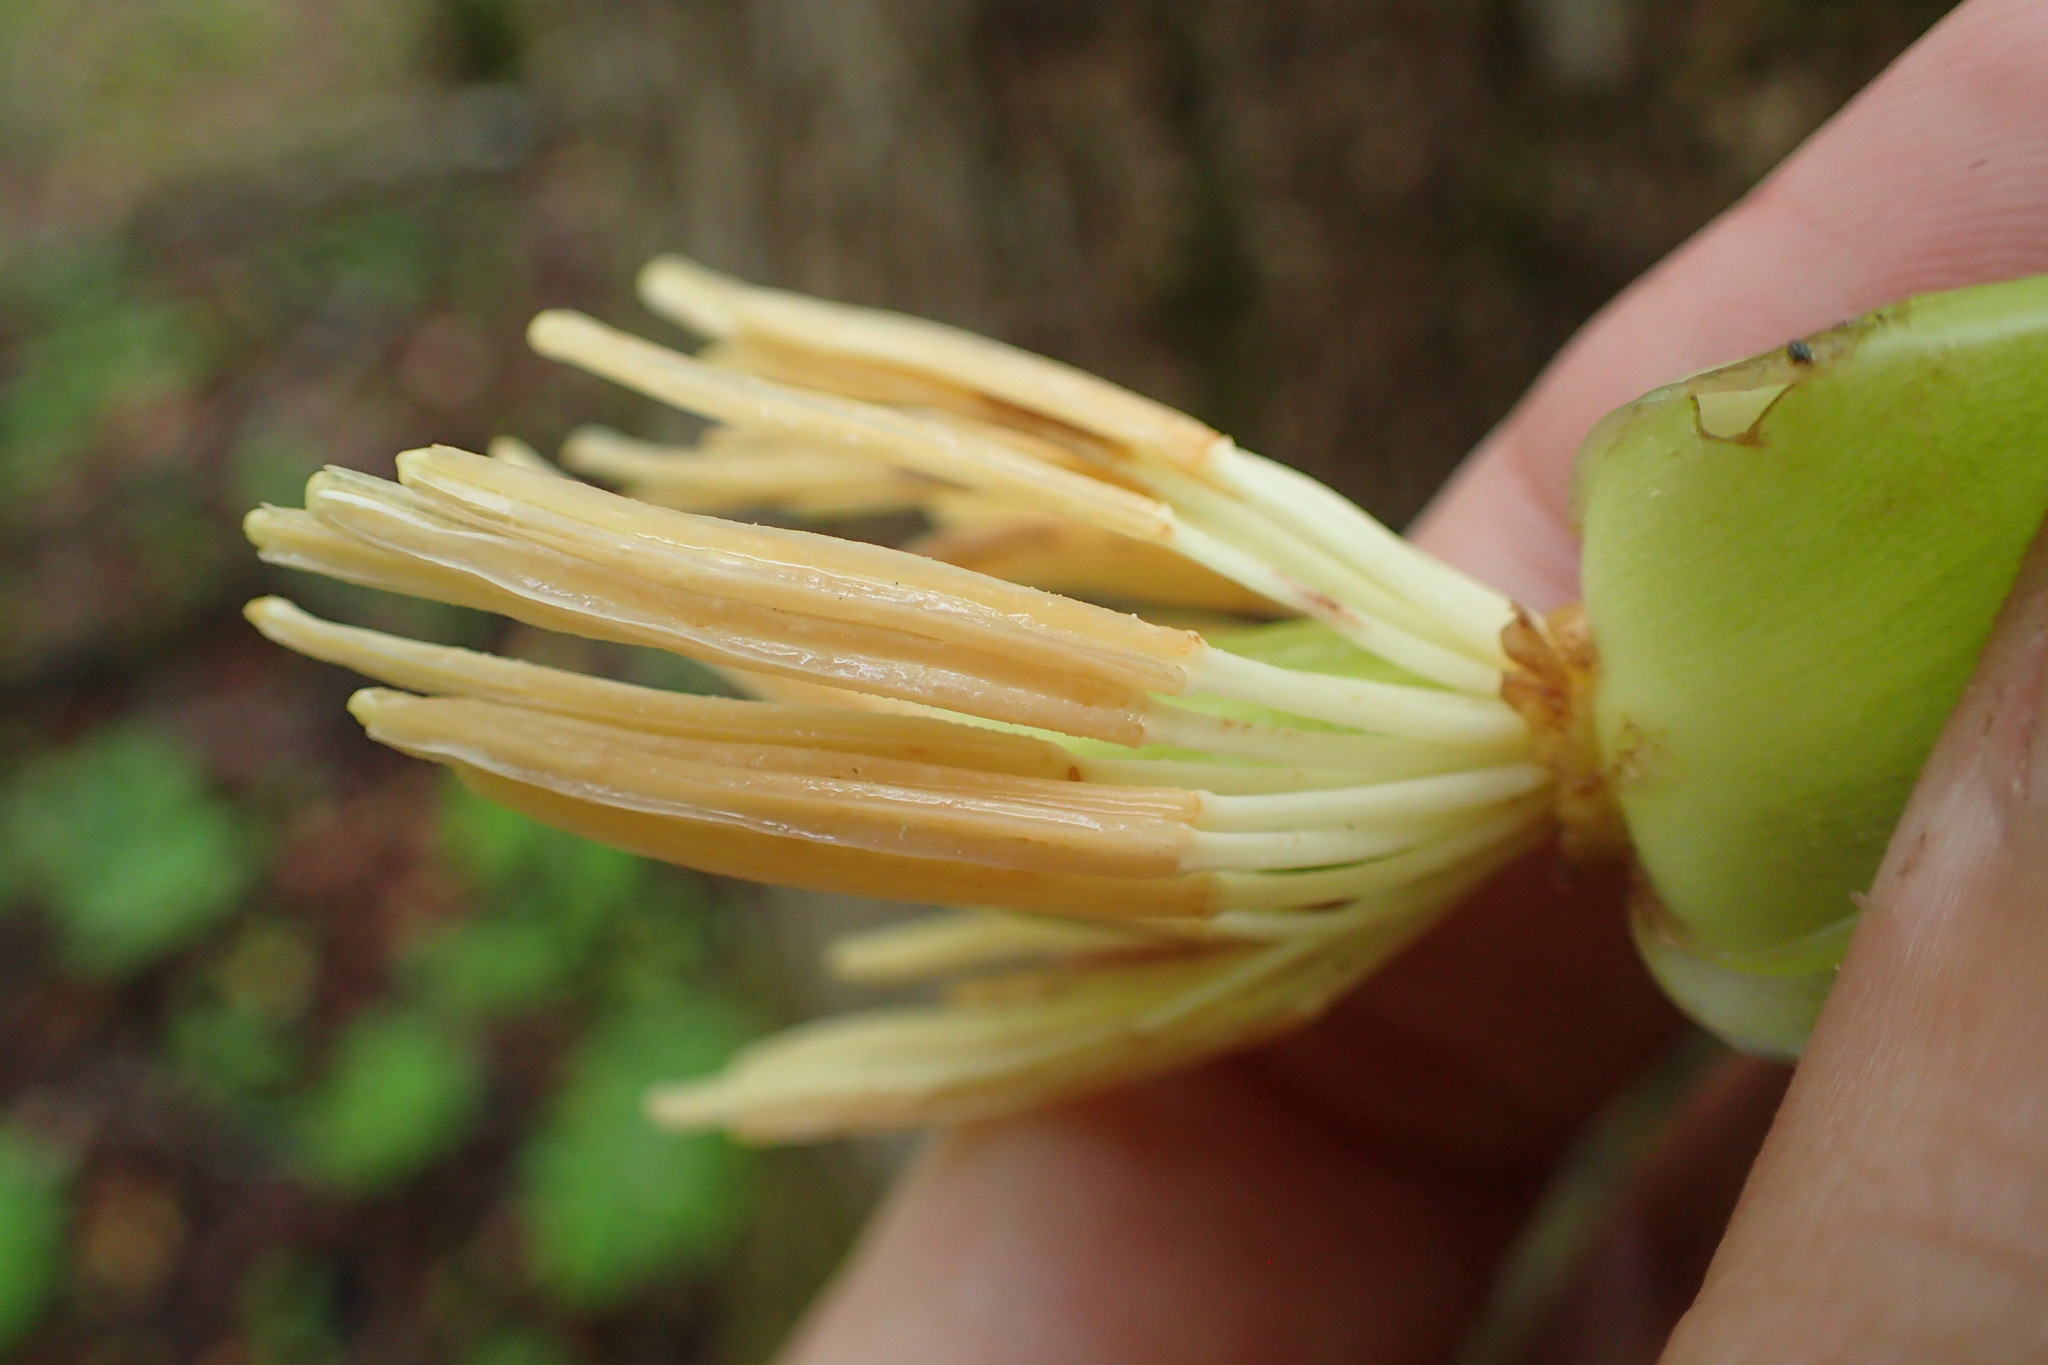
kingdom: Plantae
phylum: Tracheophyta
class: Magnoliopsida
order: Magnoliales
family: Magnoliaceae
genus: Liriodendron
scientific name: Liriodendron tulipifera
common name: Tulip tree
